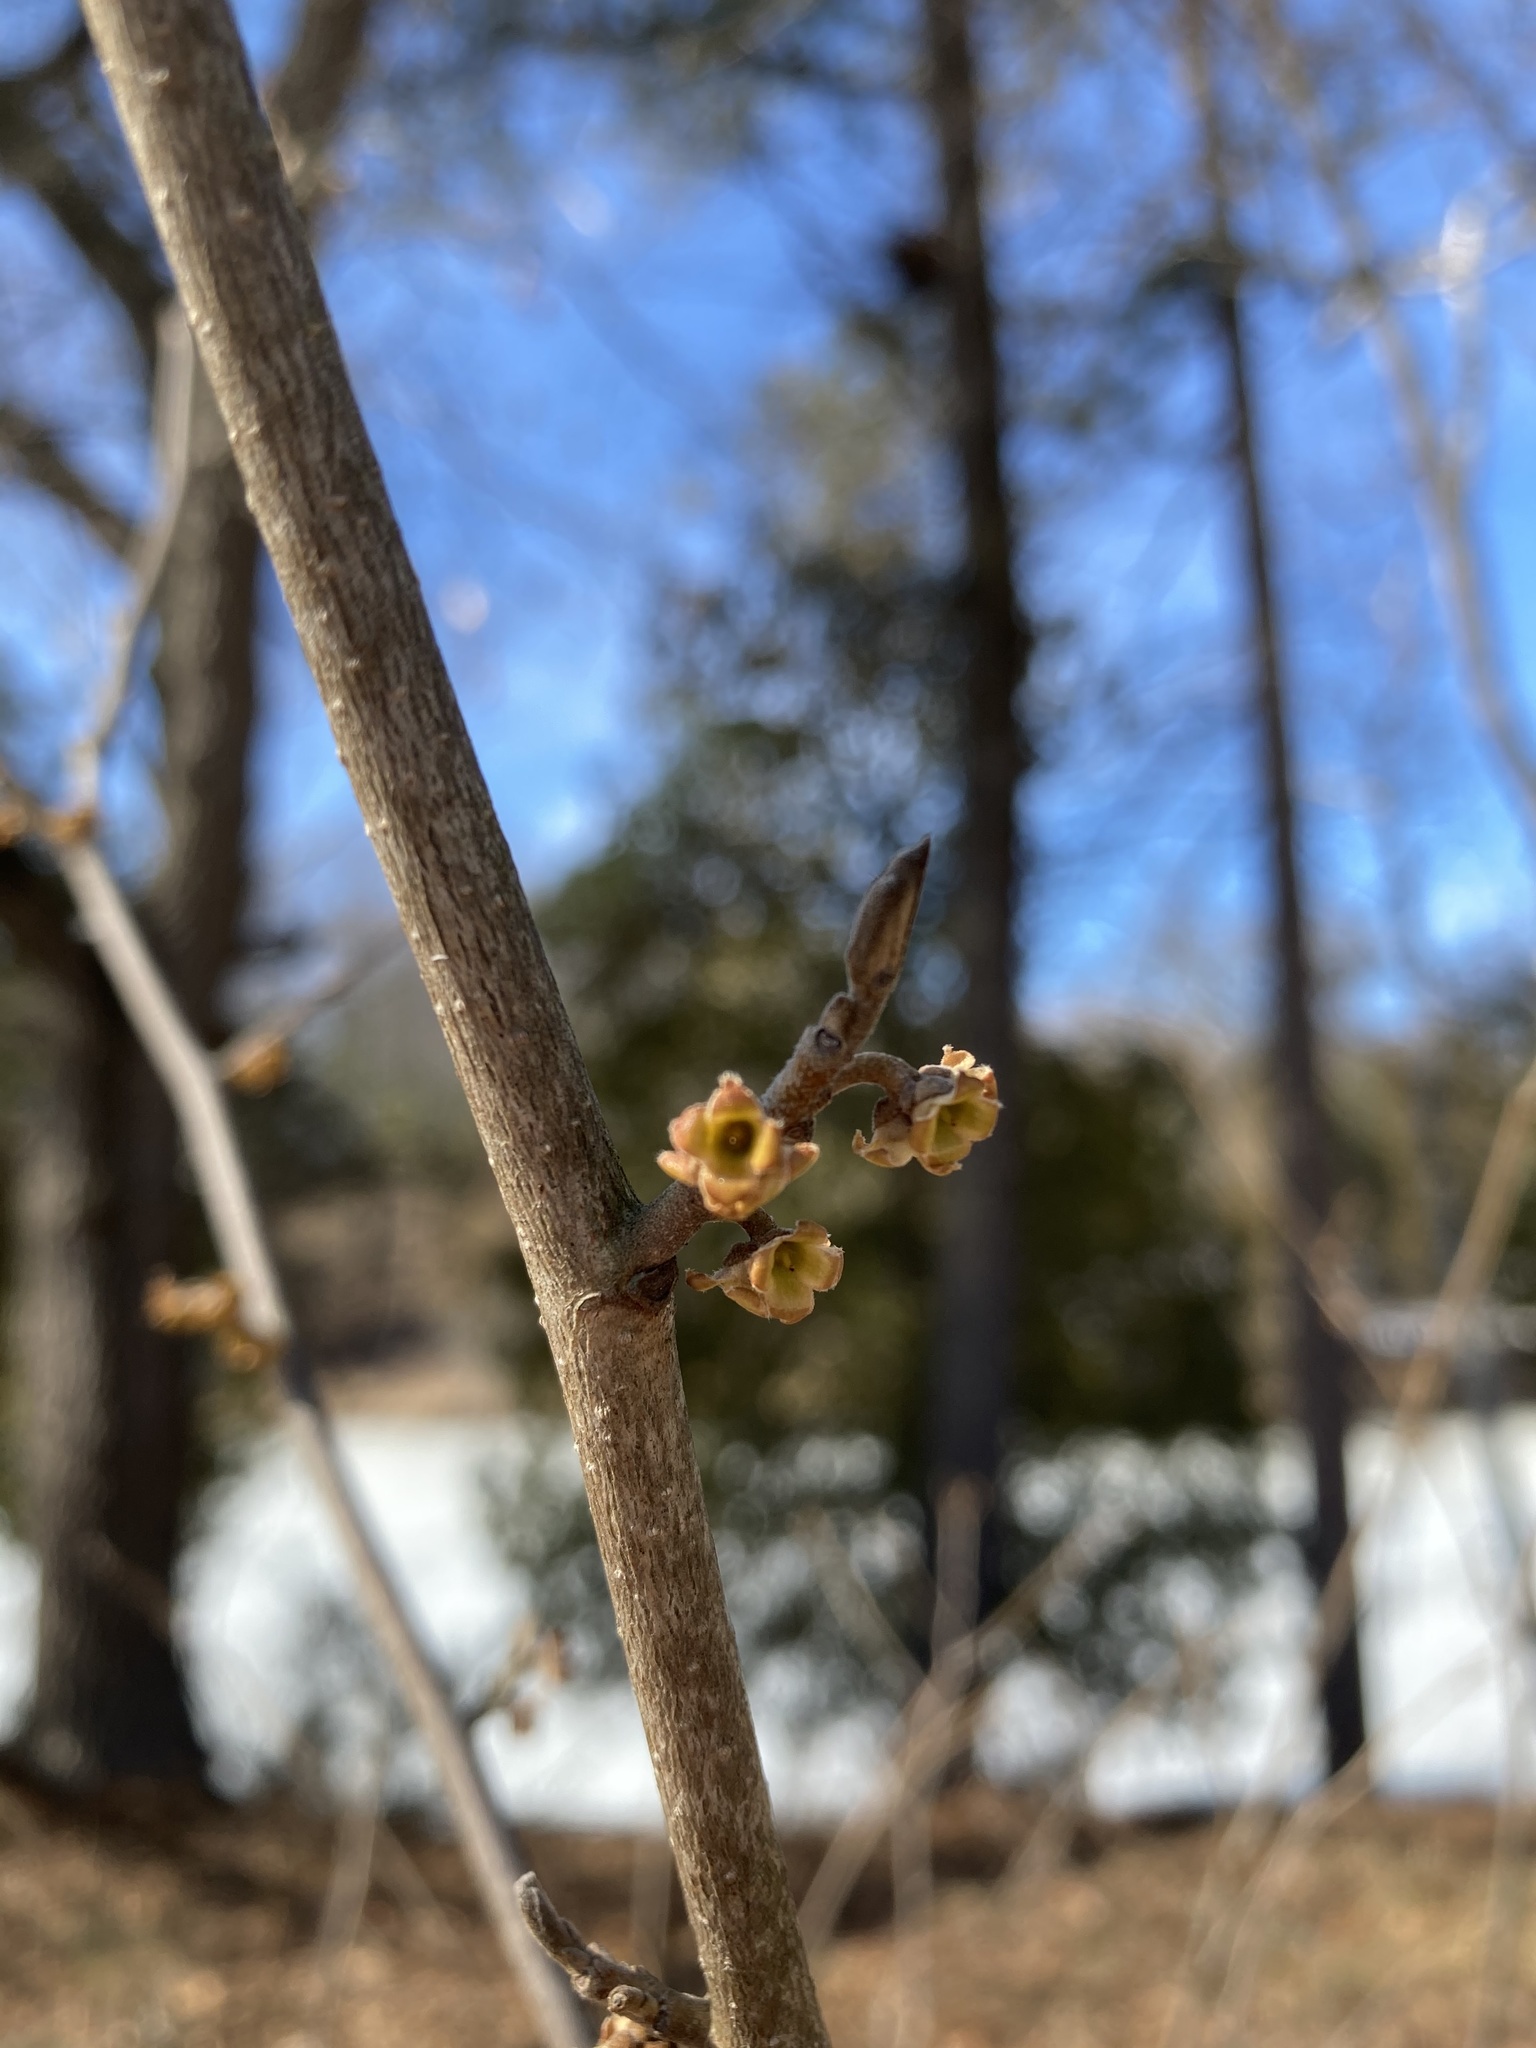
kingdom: Plantae
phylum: Tracheophyta
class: Magnoliopsida
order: Saxifragales
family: Hamamelidaceae
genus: Hamamelis
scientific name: Hamamelis virginiana
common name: Witch-hazel
